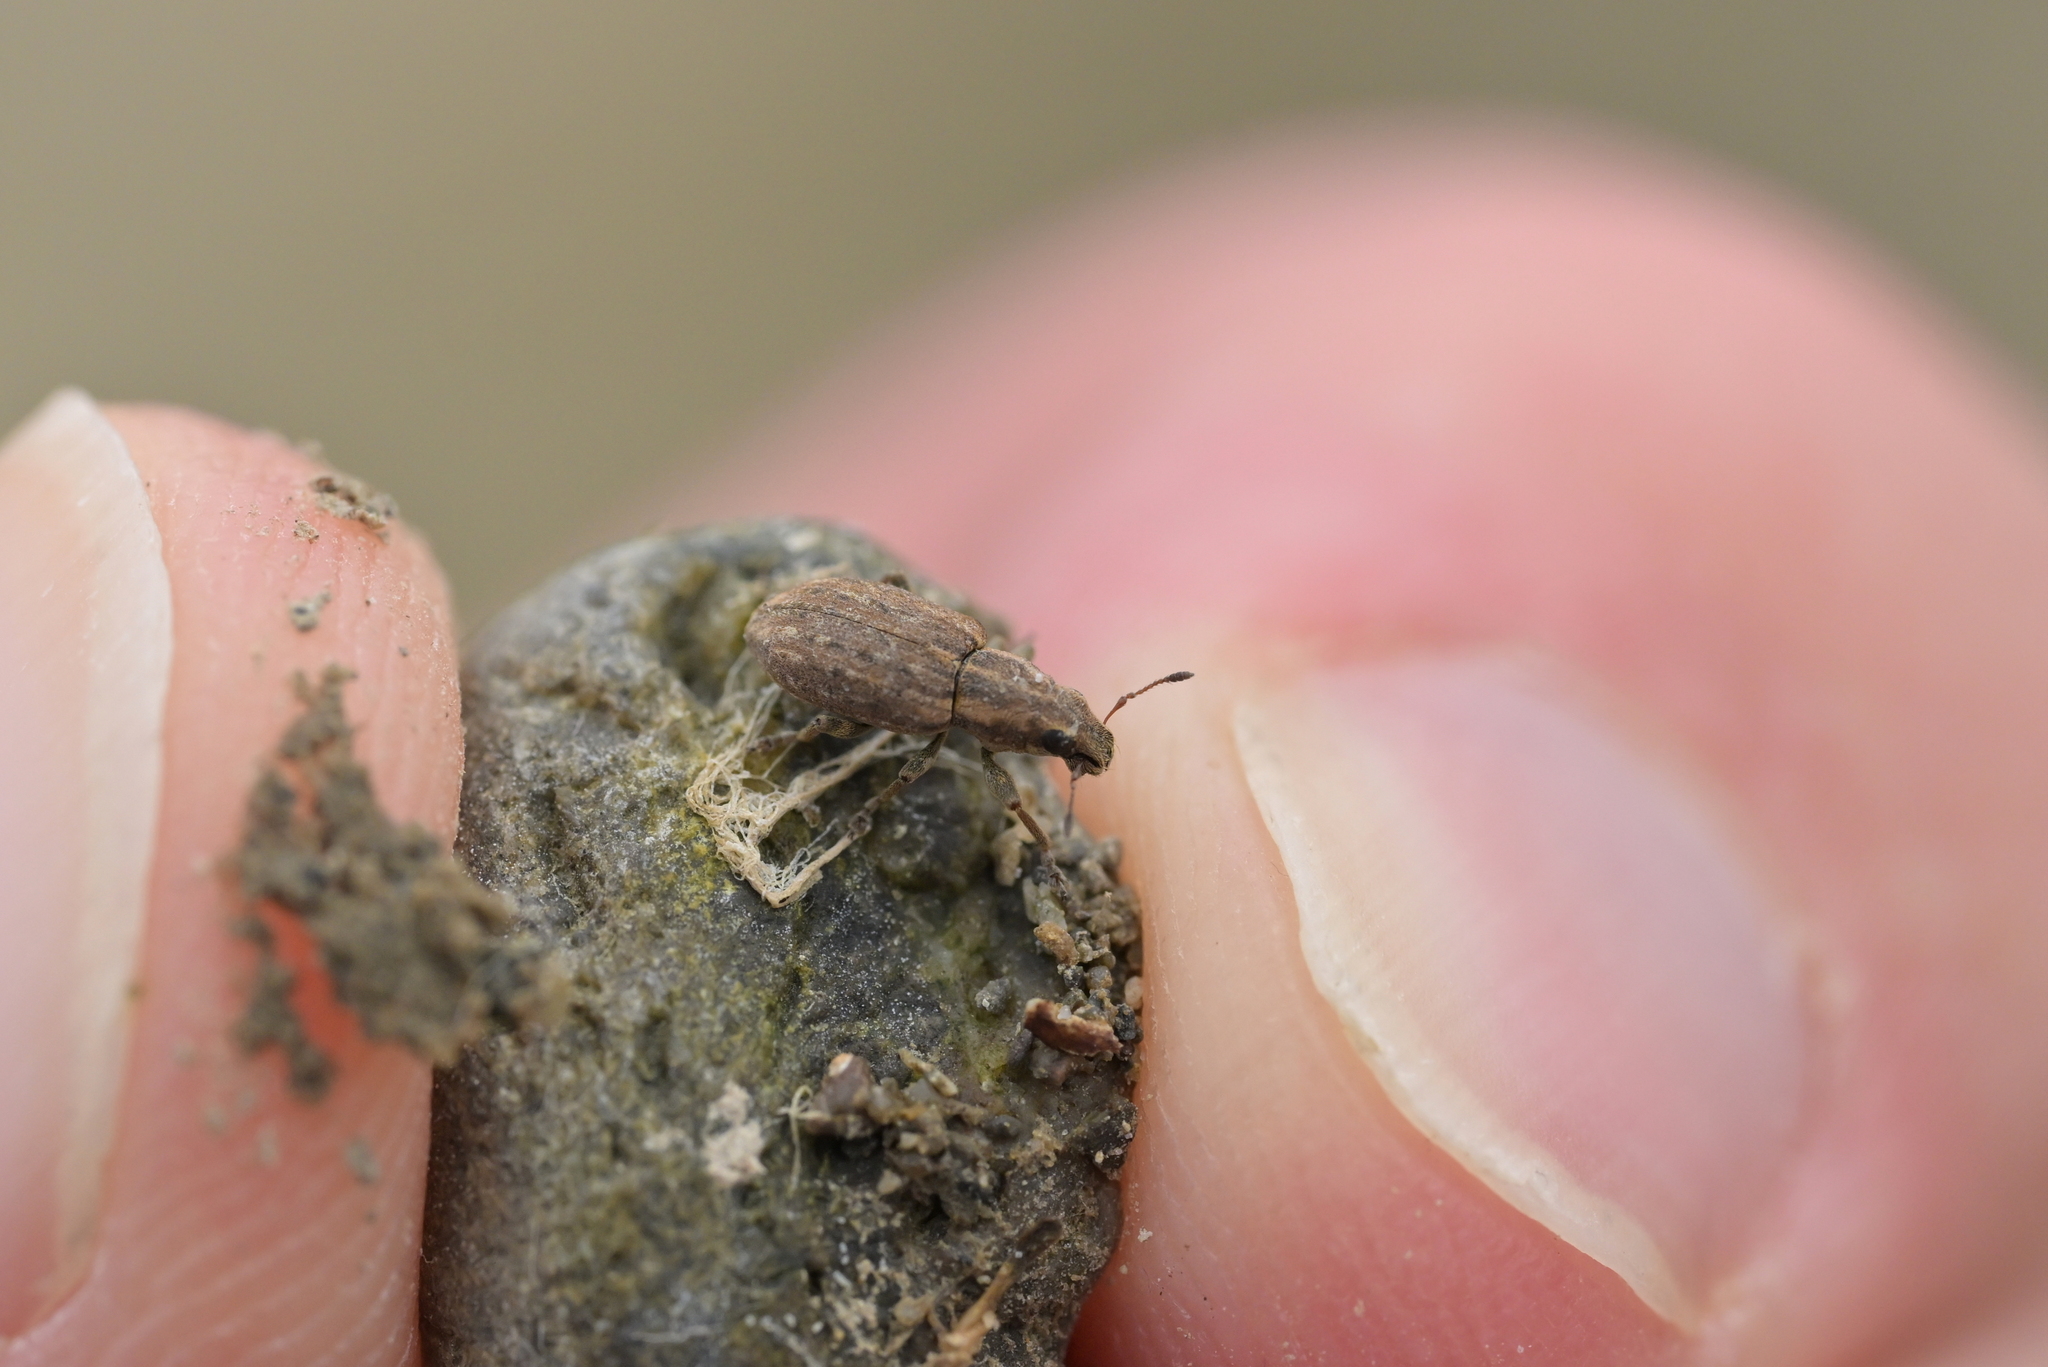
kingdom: Animalia
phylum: Arthropoda
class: Insecta
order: Coleoptera
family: Curculionidae
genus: Sitona
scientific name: Sitona obsoletus
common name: Weevil
